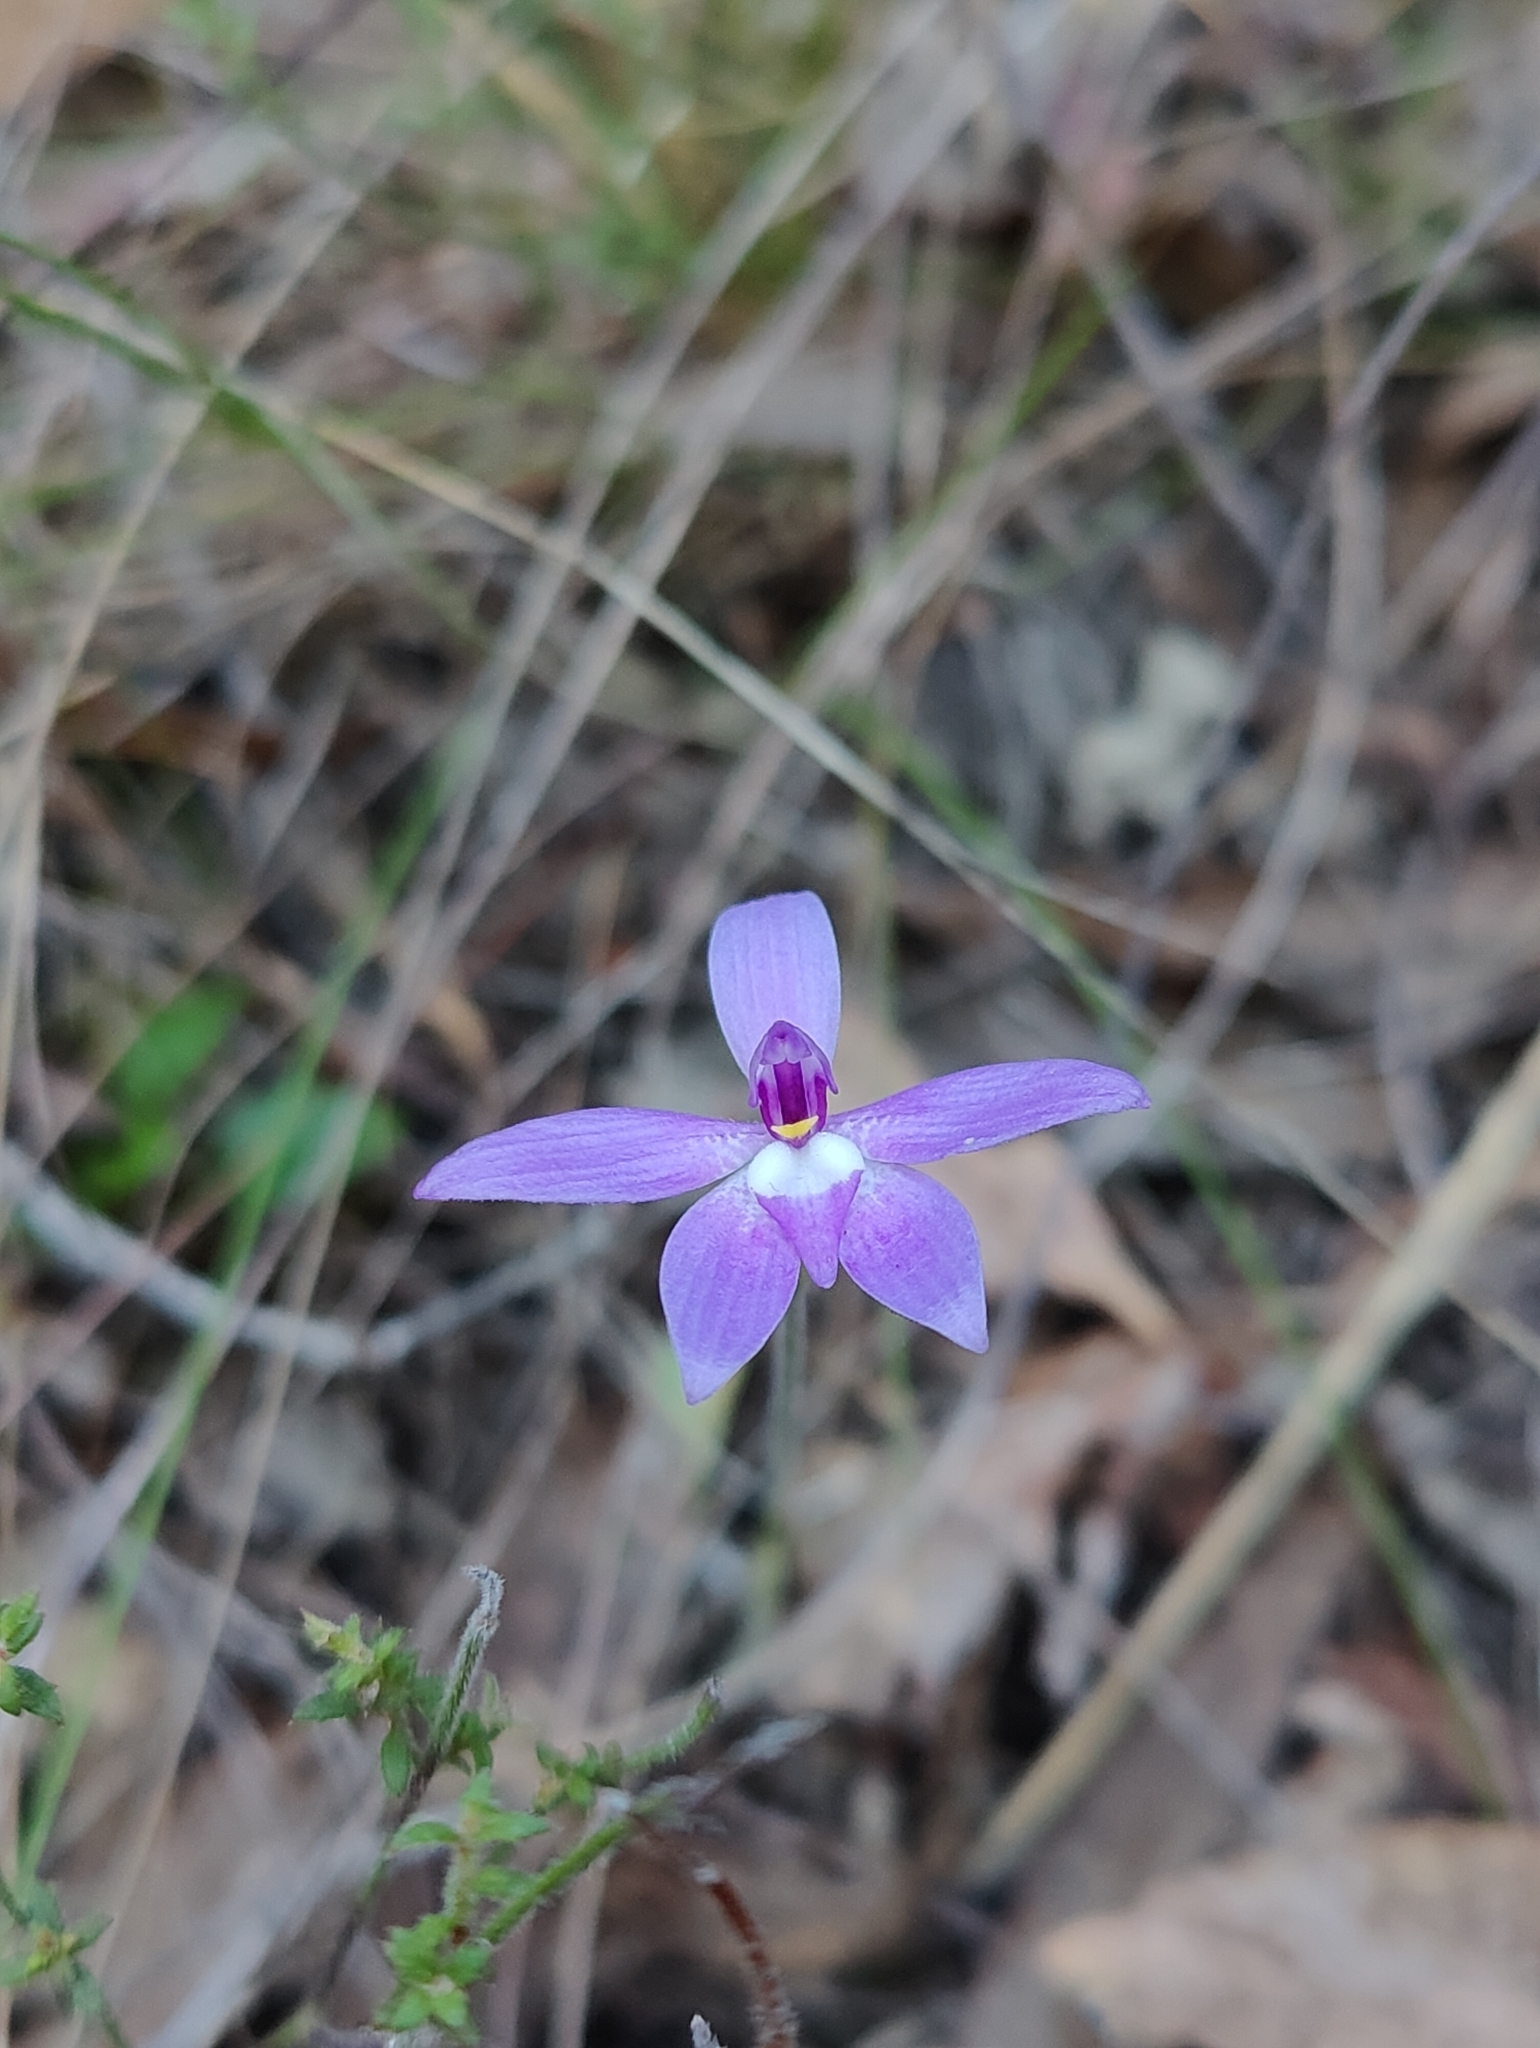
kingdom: Plantae
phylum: Tracheophyta
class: Liliopsida
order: Asparagales
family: Orchidaceae
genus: Caladenia
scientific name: Caladenia major
